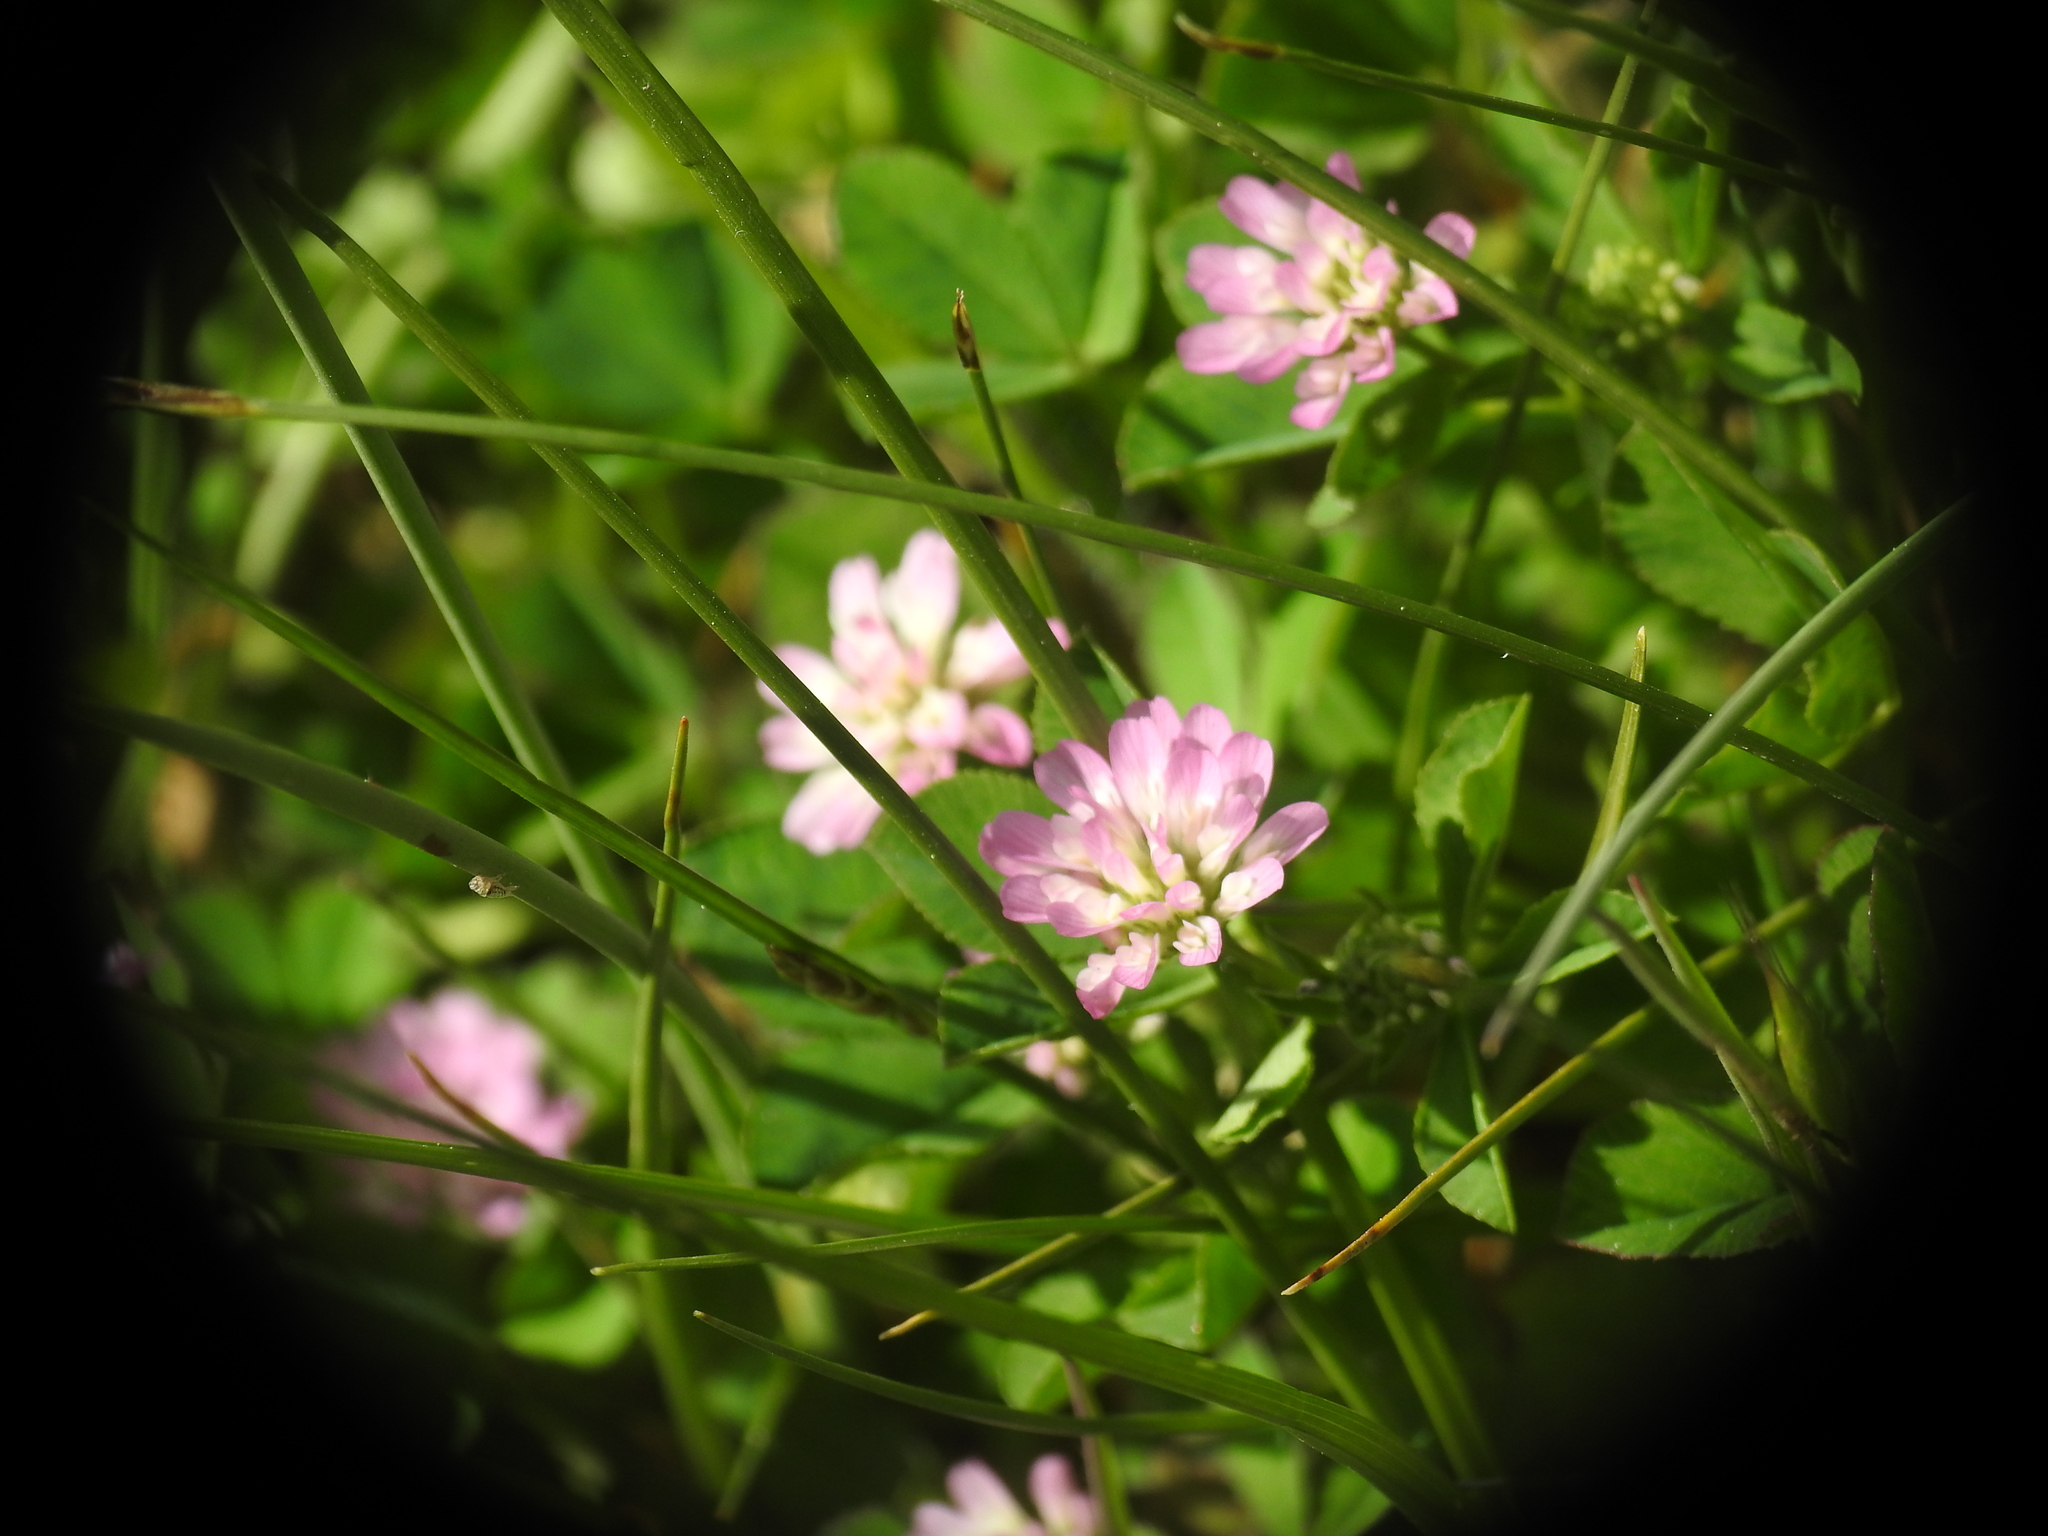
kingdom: Plantae
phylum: Tracheophyta
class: Magnoliopsida
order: Fabales
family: Fabaceae
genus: Trifolium
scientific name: Trifolium resupinatum
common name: Reversed clover
